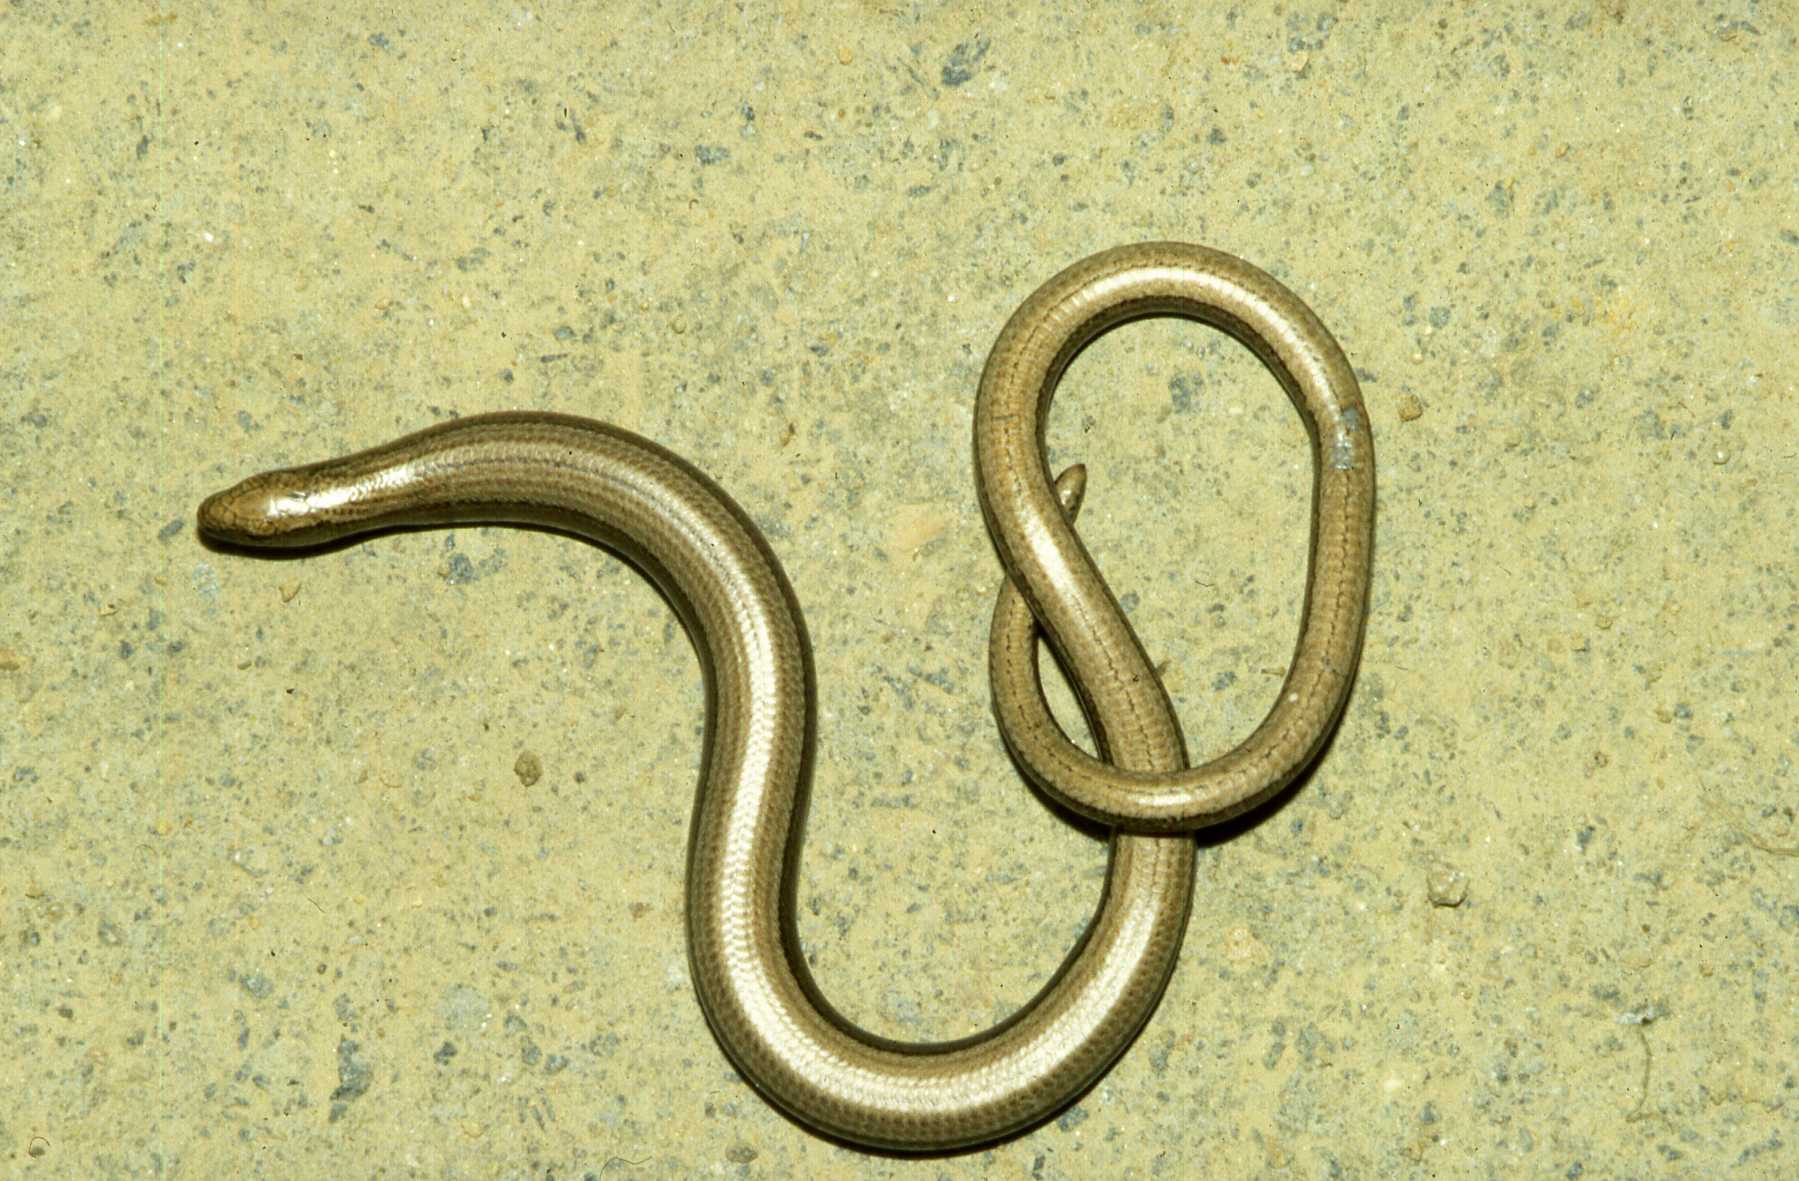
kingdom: Animalia
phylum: Chordata
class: Squamata
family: Anguidae
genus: Anguis
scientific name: Anguis fragilis
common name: Slow worm
